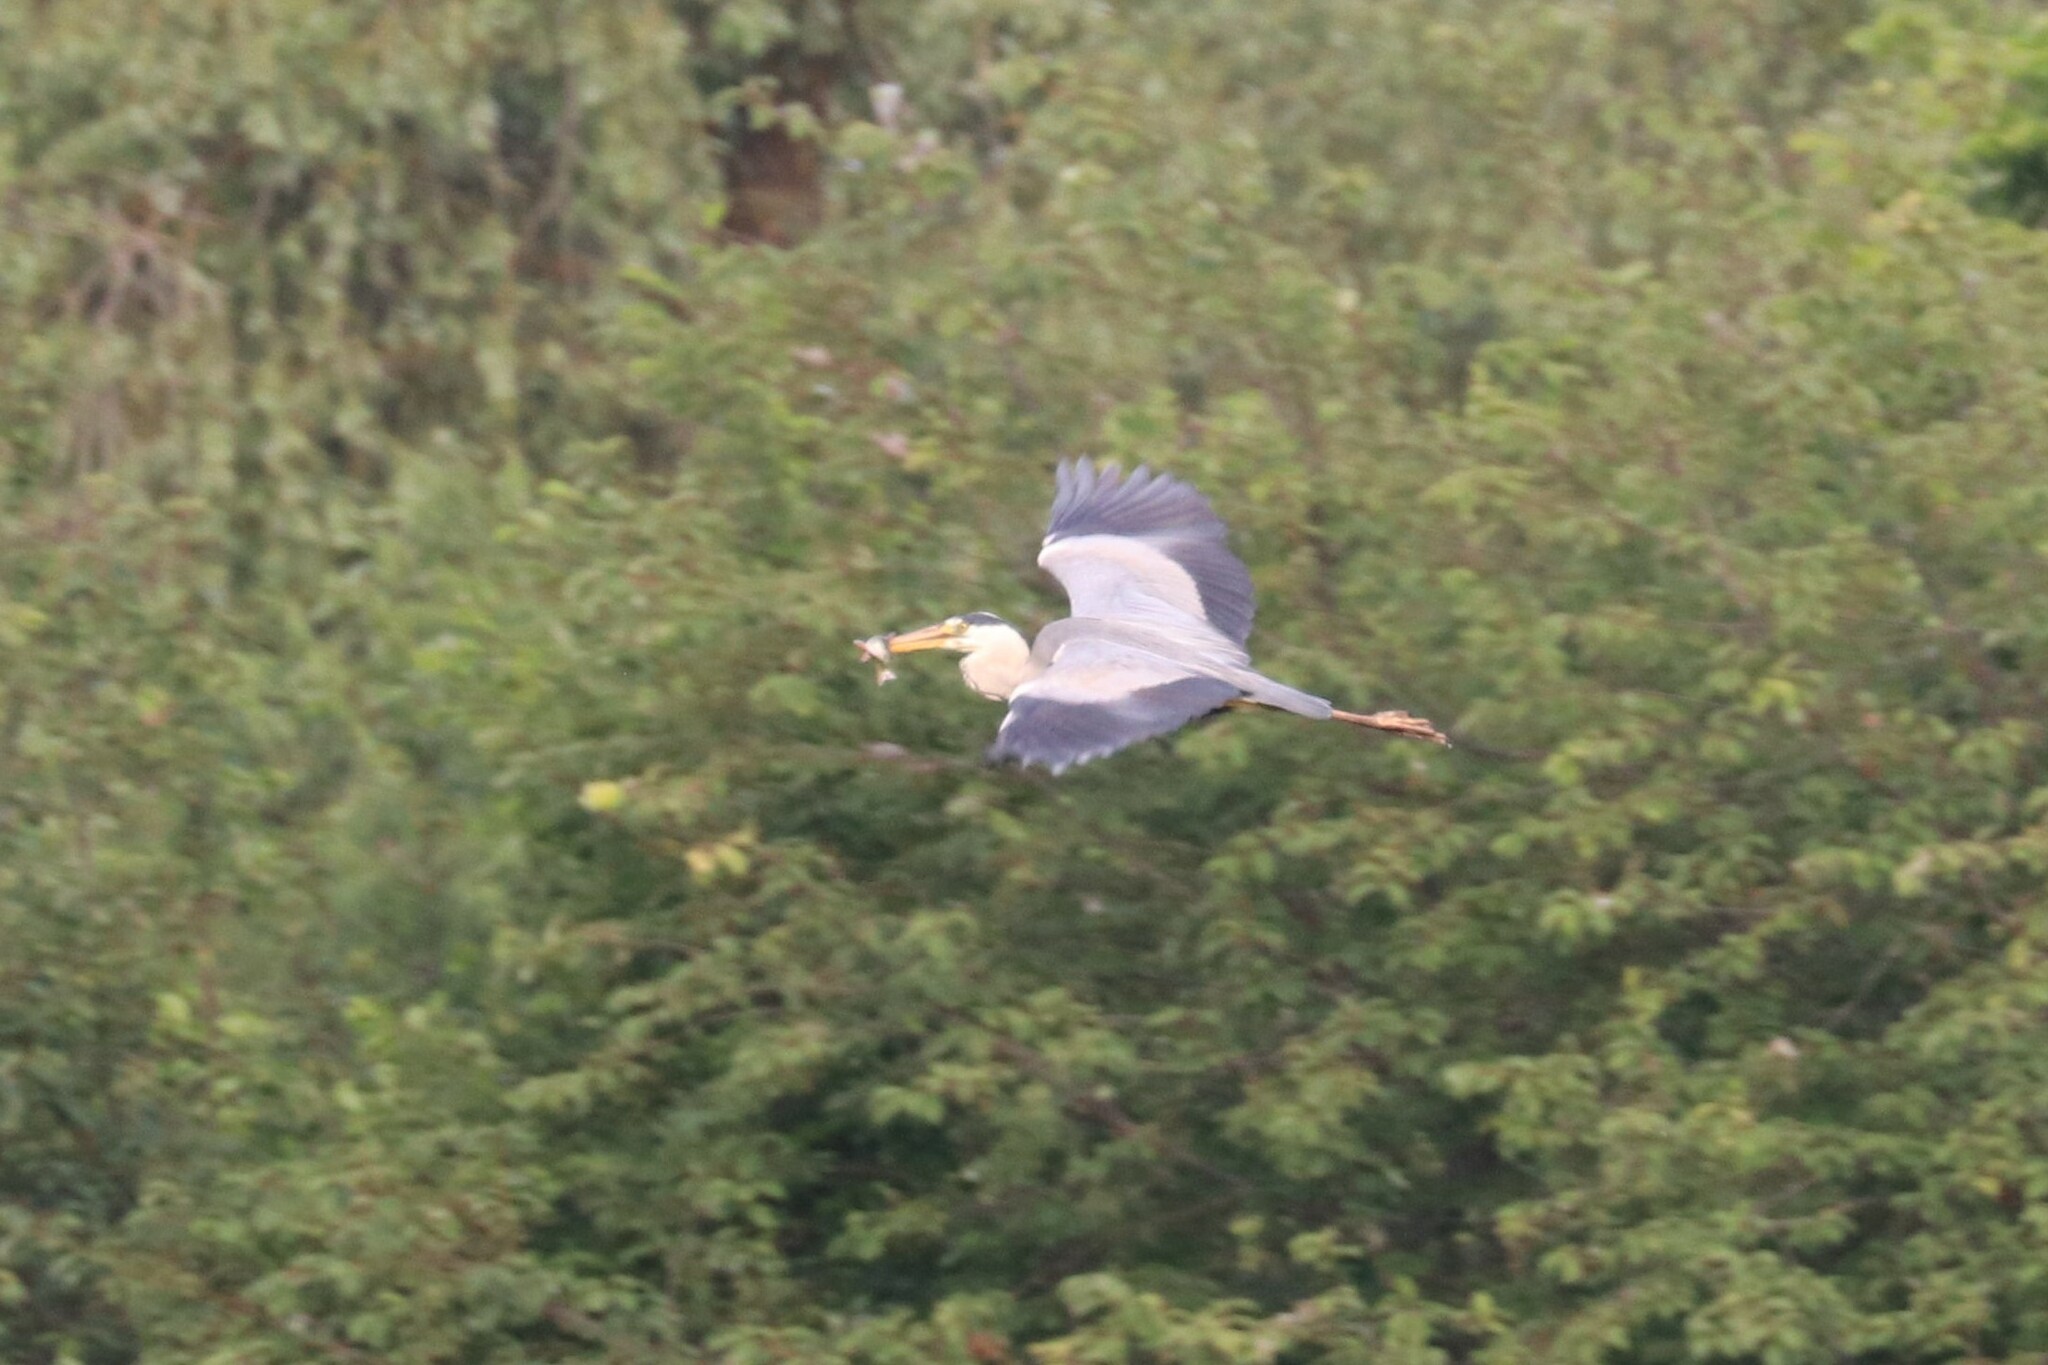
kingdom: Animalia
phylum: Chordata
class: Aves
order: Pelecaniformes
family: Ardeidae
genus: Ardea
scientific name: Ardea cinerea
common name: Grey heron
